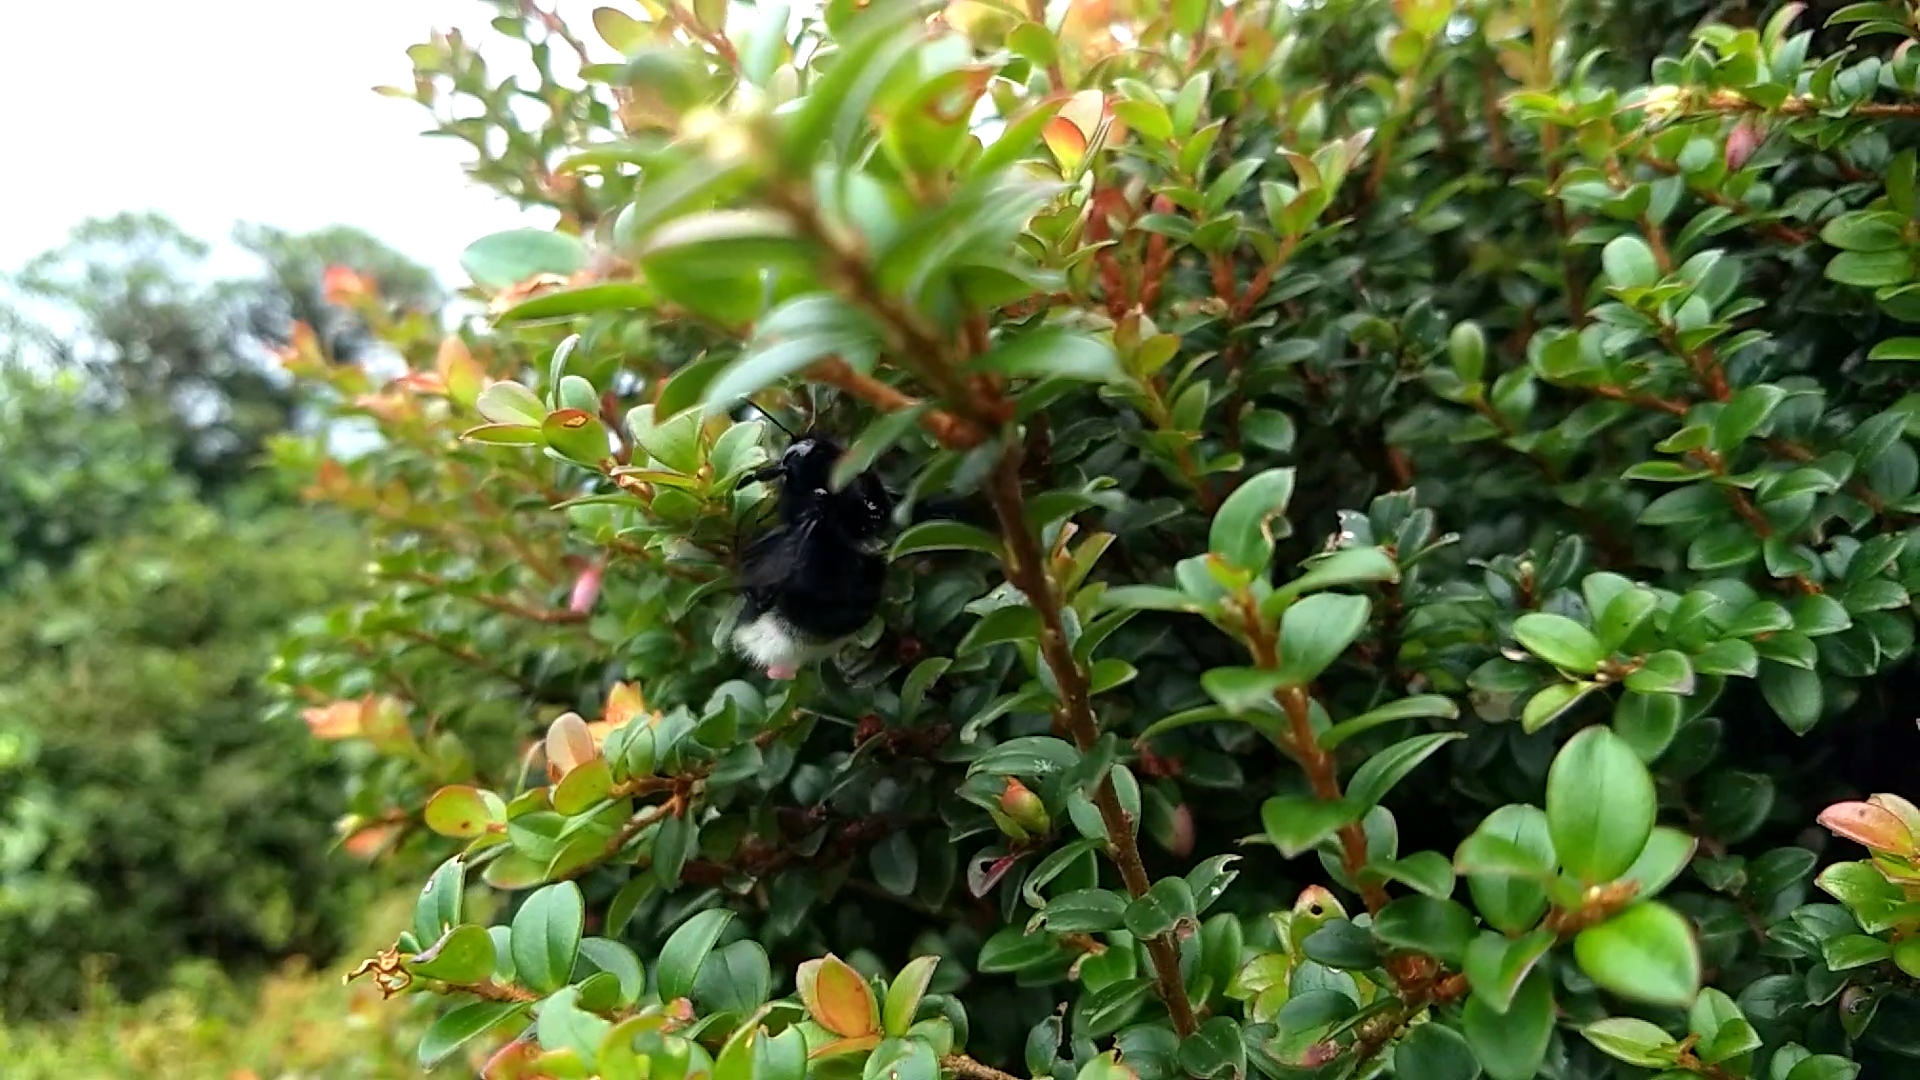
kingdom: Animalia
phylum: Arthropoda
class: Insecta
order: Hymenoptera
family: Apidae
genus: Bombus
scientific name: Bombus volucelloides
